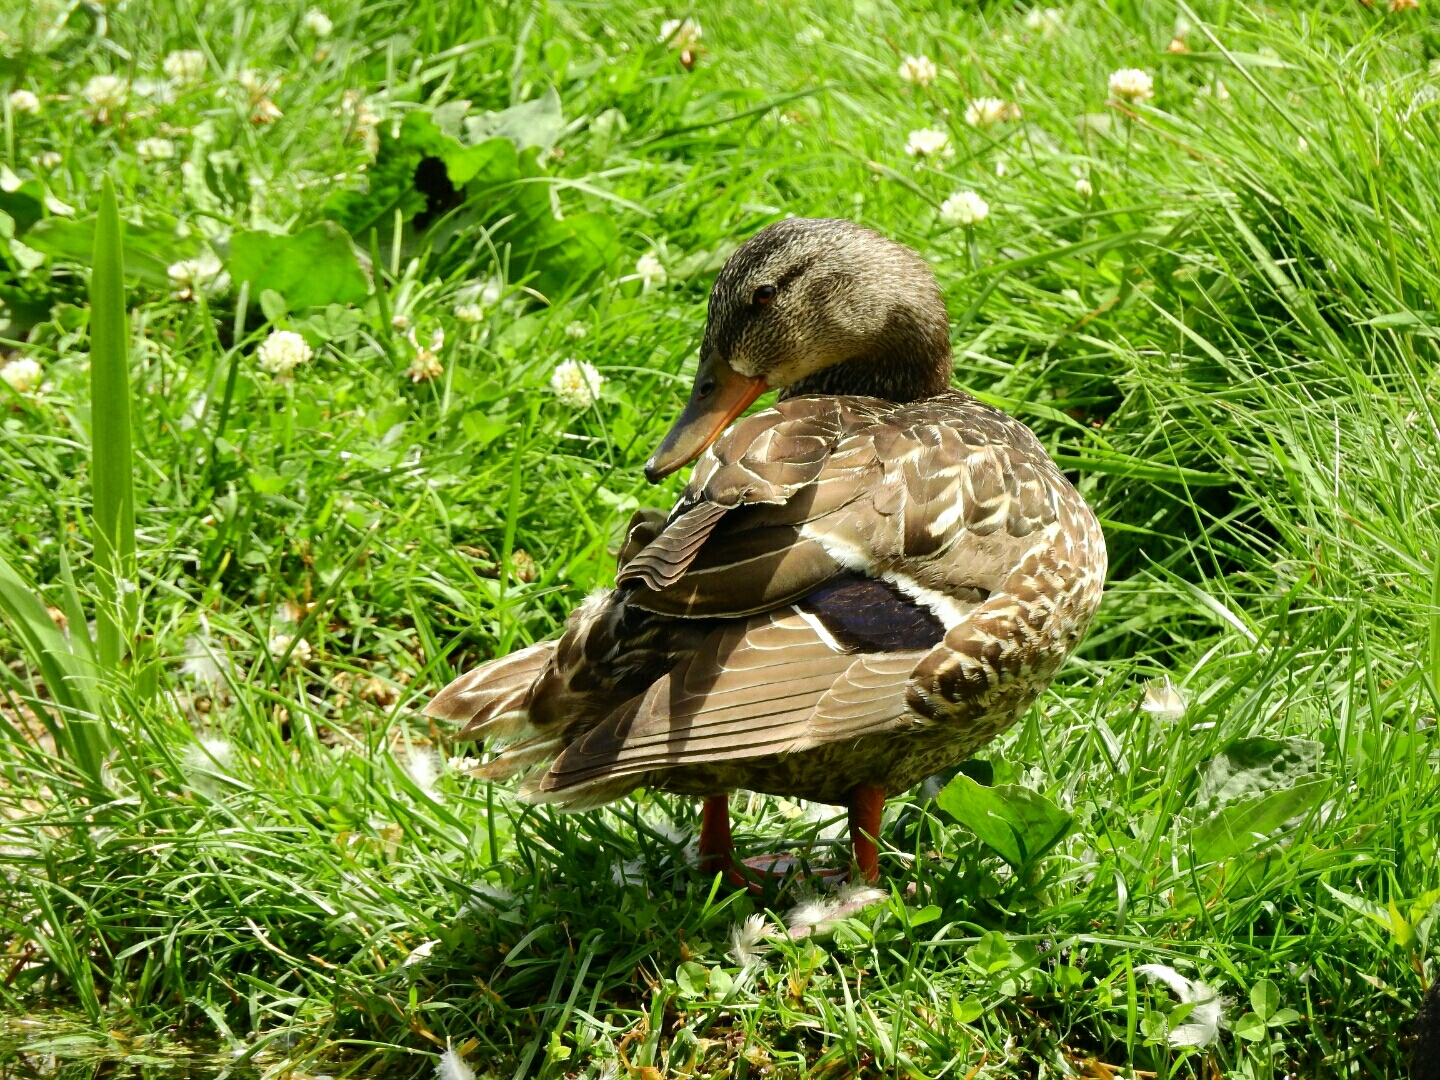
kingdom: Animalia
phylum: Chordata
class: Aves
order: Anseriformes
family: Anatidae
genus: Anas
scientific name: Anas platyrhynchos
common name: Mallard
